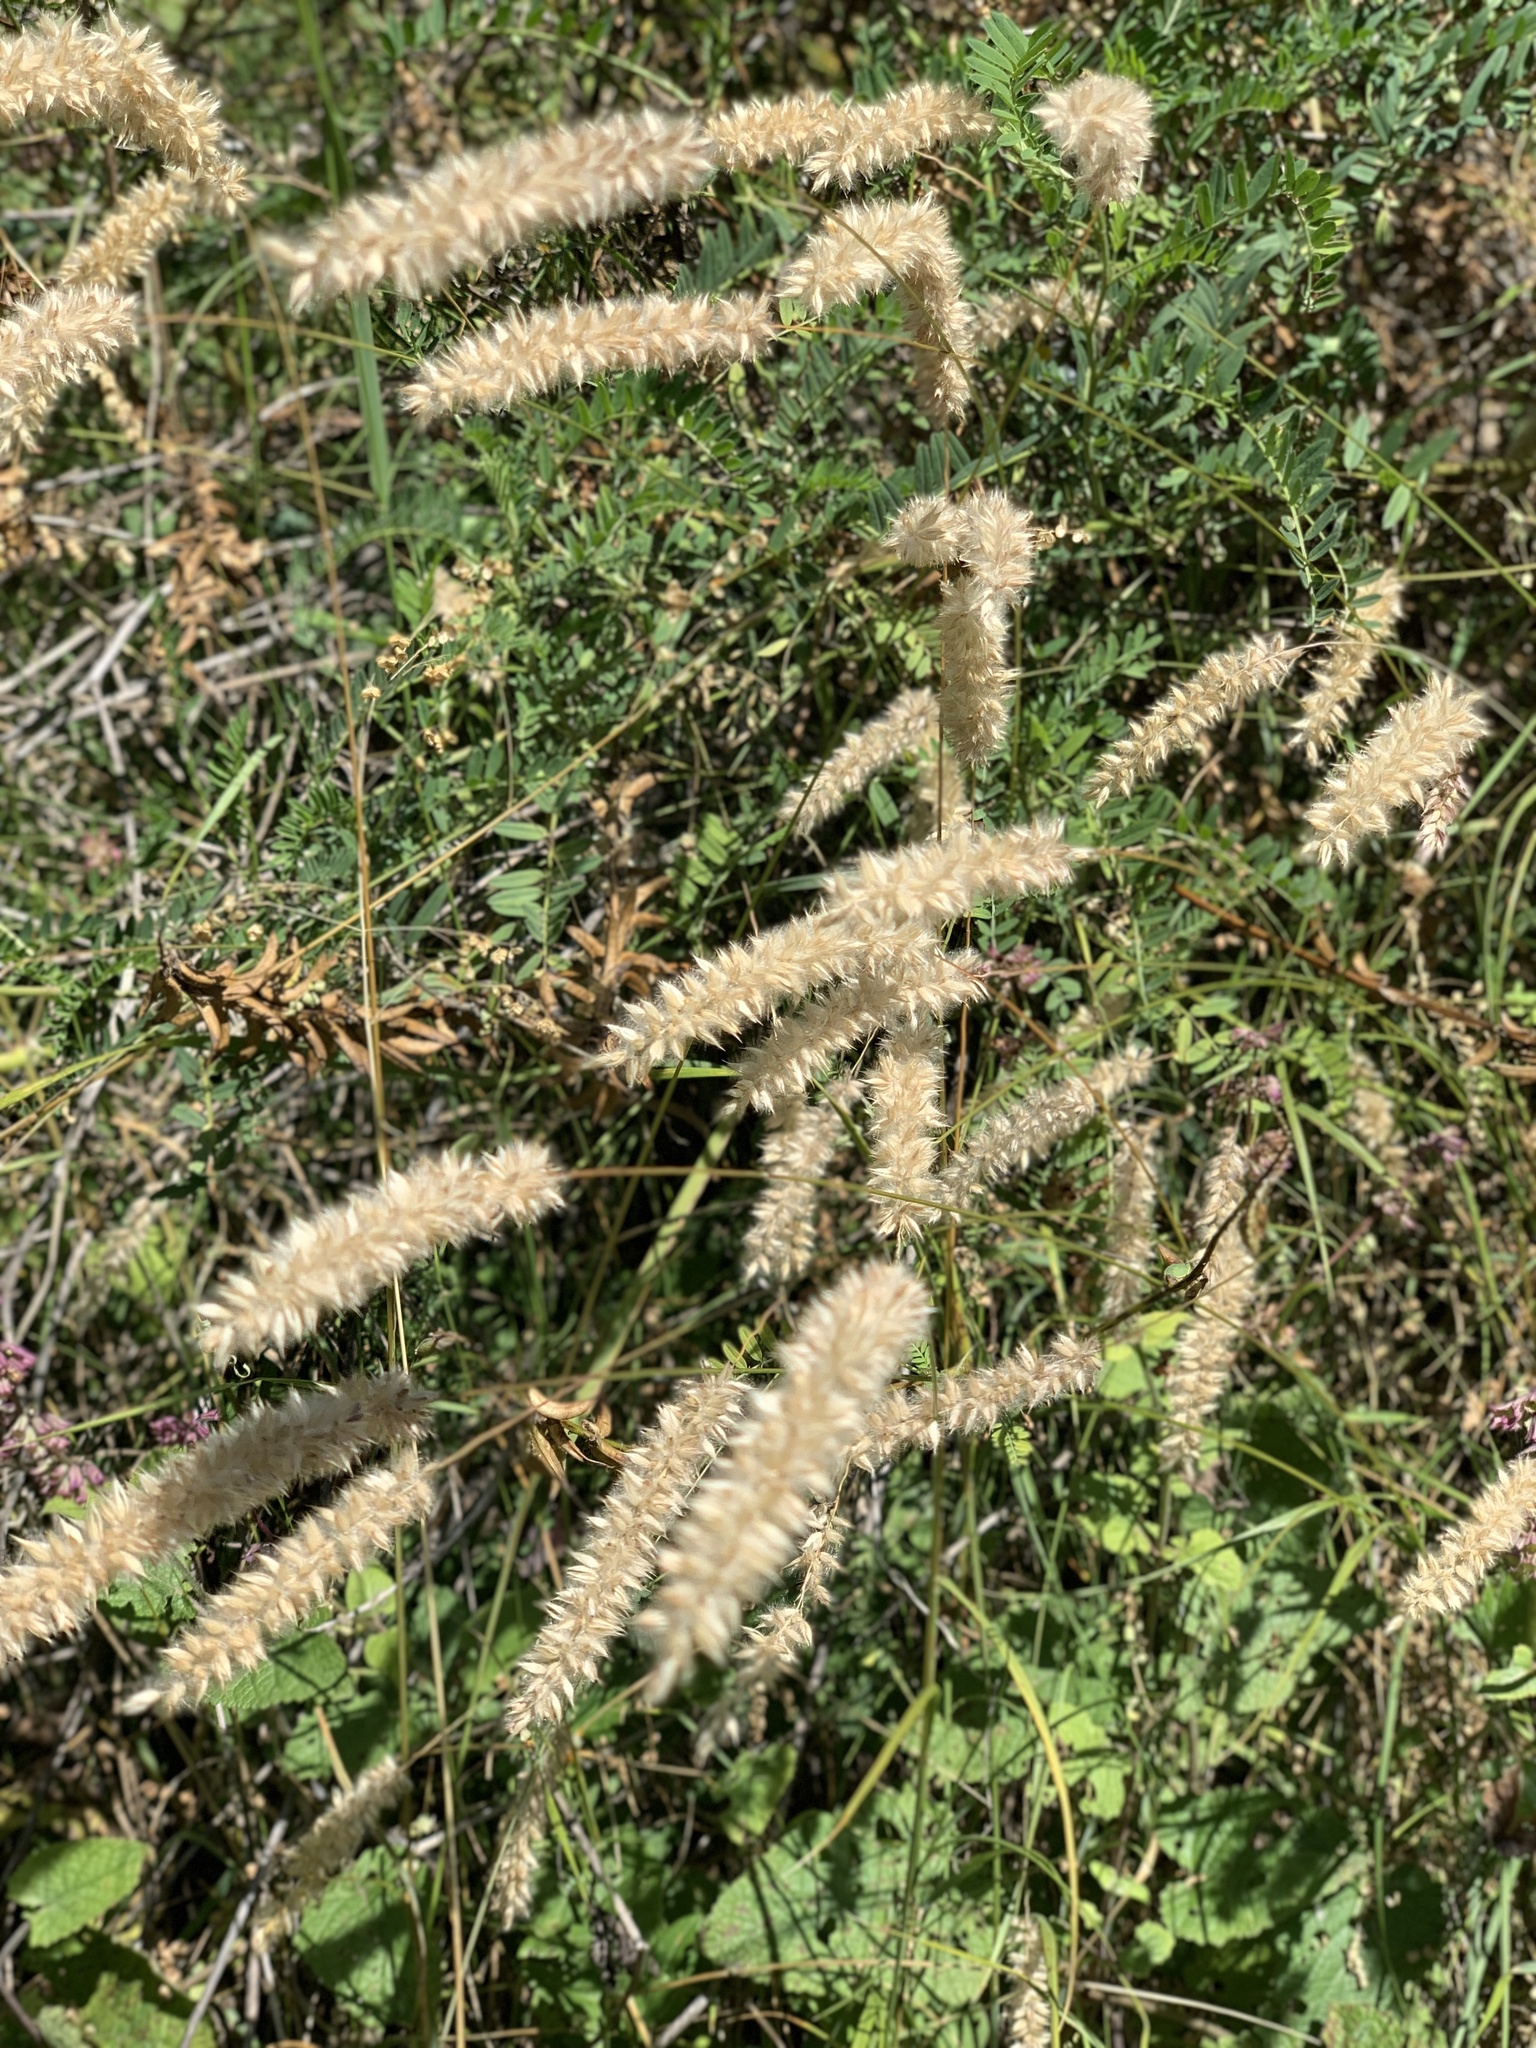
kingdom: Plantae
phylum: Tracheophyta
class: Liliopsida
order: Poales
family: Poaceae
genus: Melica
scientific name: Melica transsilvanica
